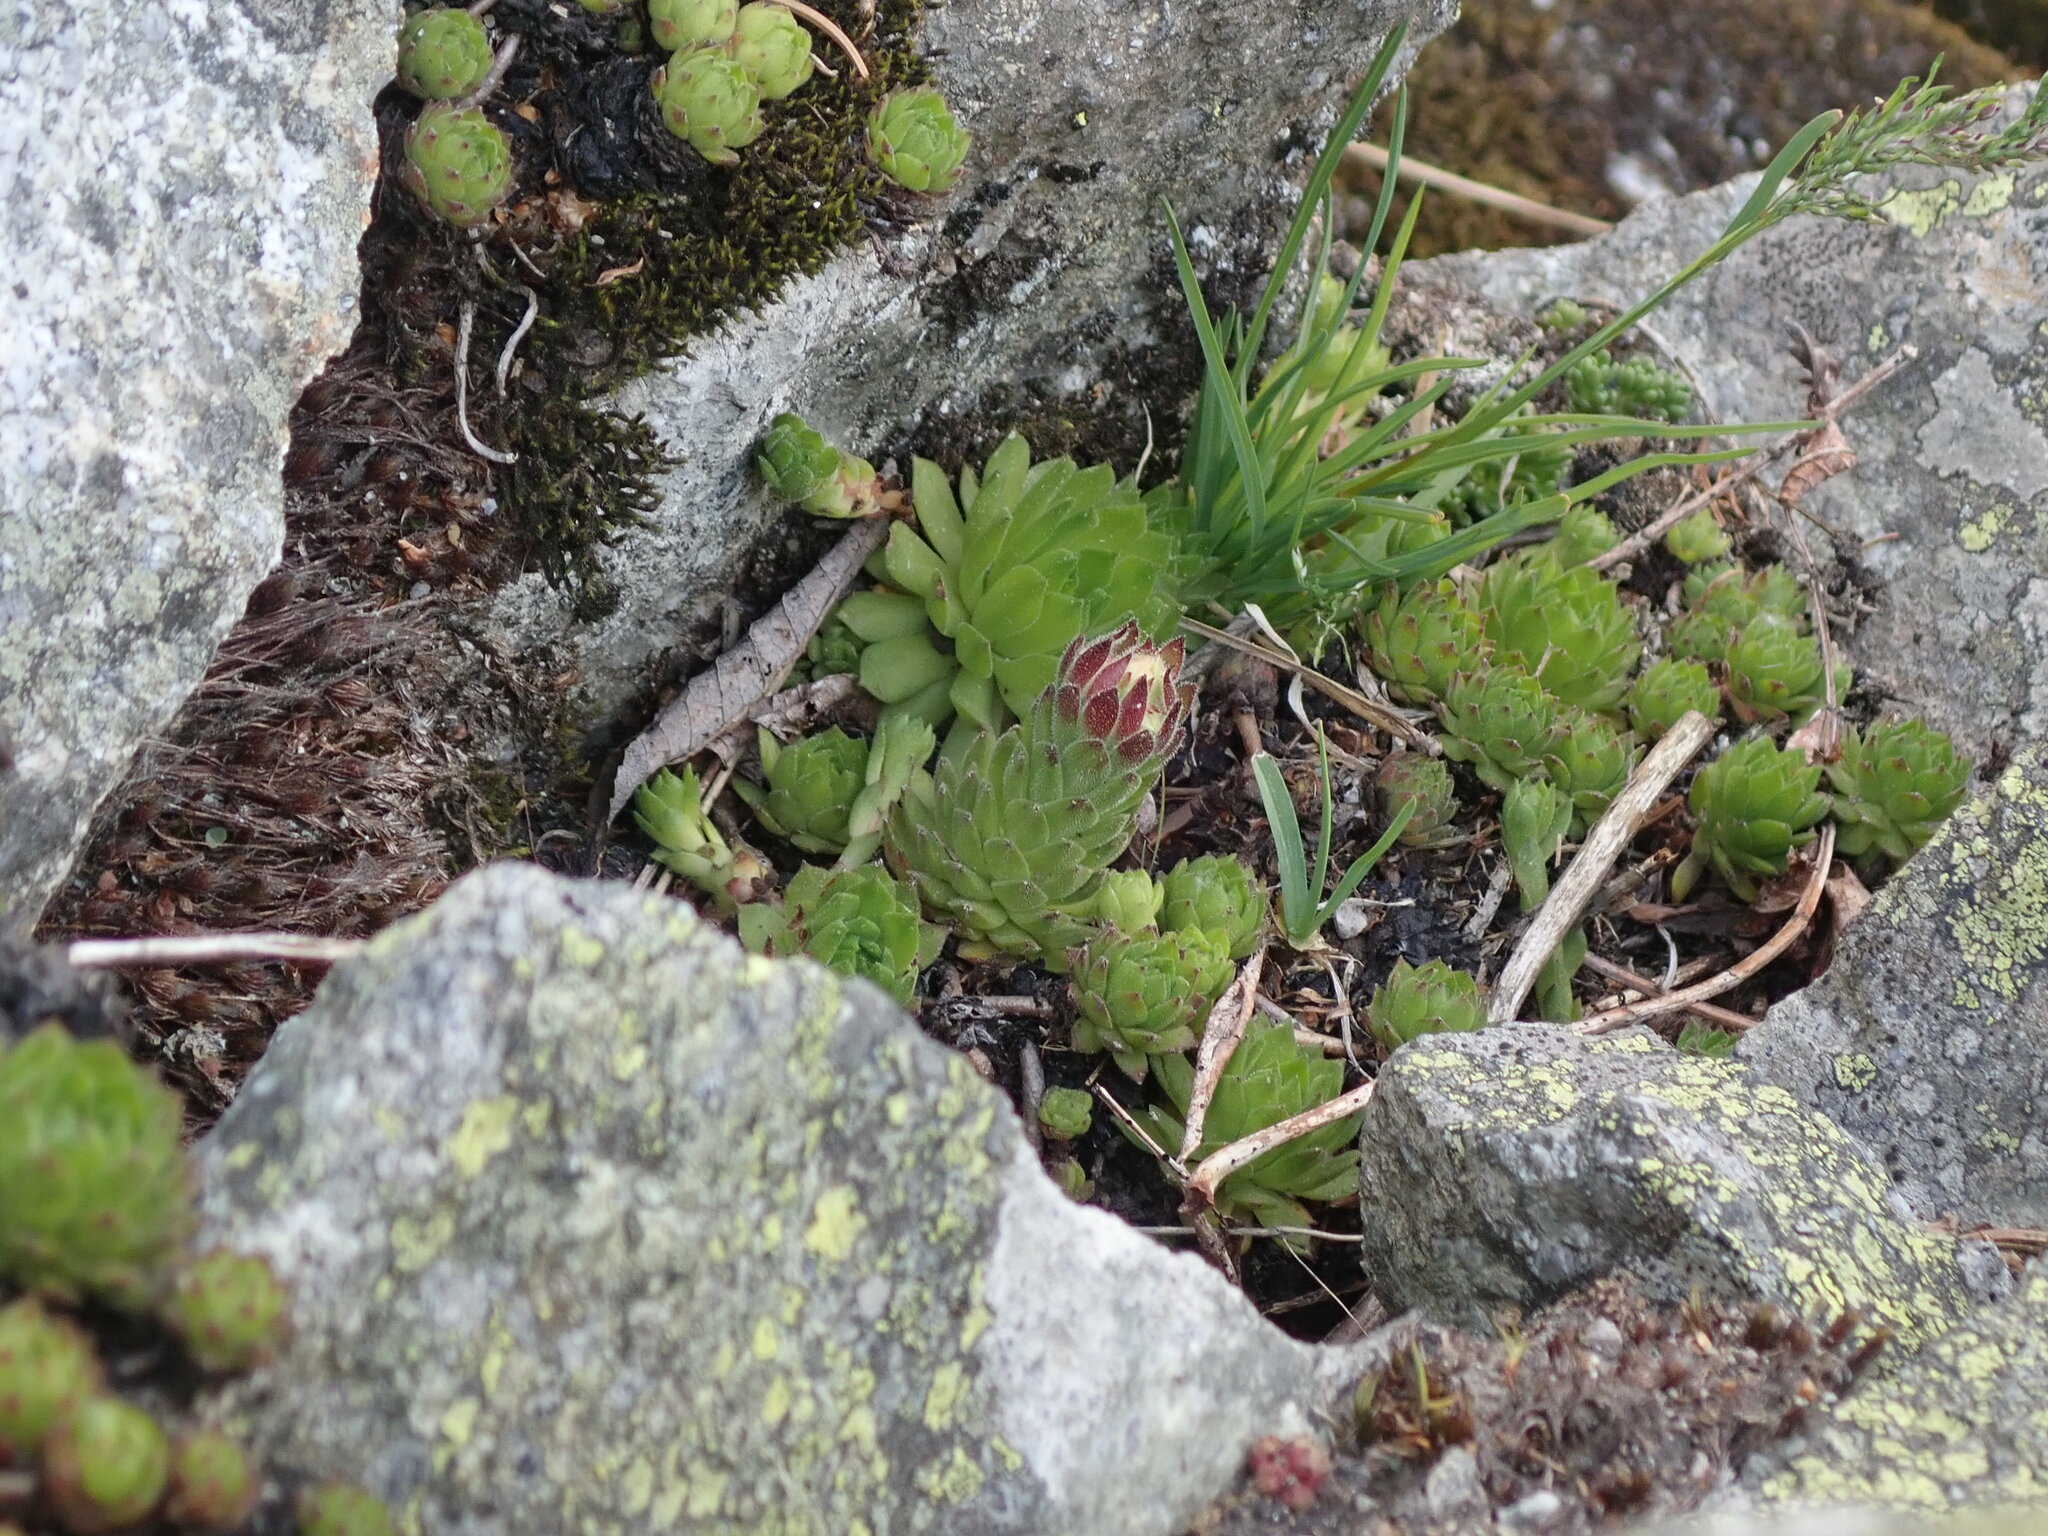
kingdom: Plantae
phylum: Tracheophyta
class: Magnoliopsida
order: Saxifragales
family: Crassulaceae
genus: Sempervivum
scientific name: Sempervivum montanum
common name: Mountain house-leek
